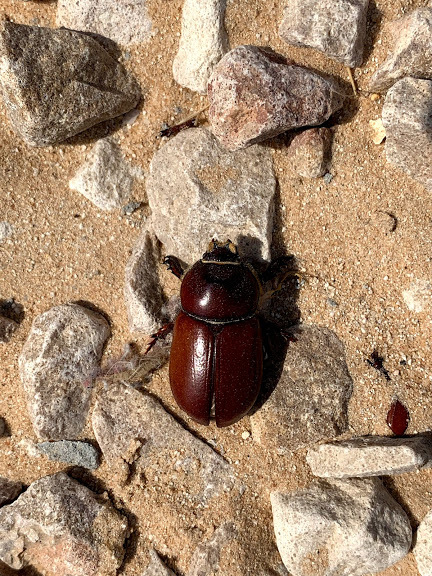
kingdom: Animalia
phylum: Arthropoda
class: Insecta
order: Coleoptera
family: Scarabaeidae
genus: Oryctes
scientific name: Oryctes agamemnon
